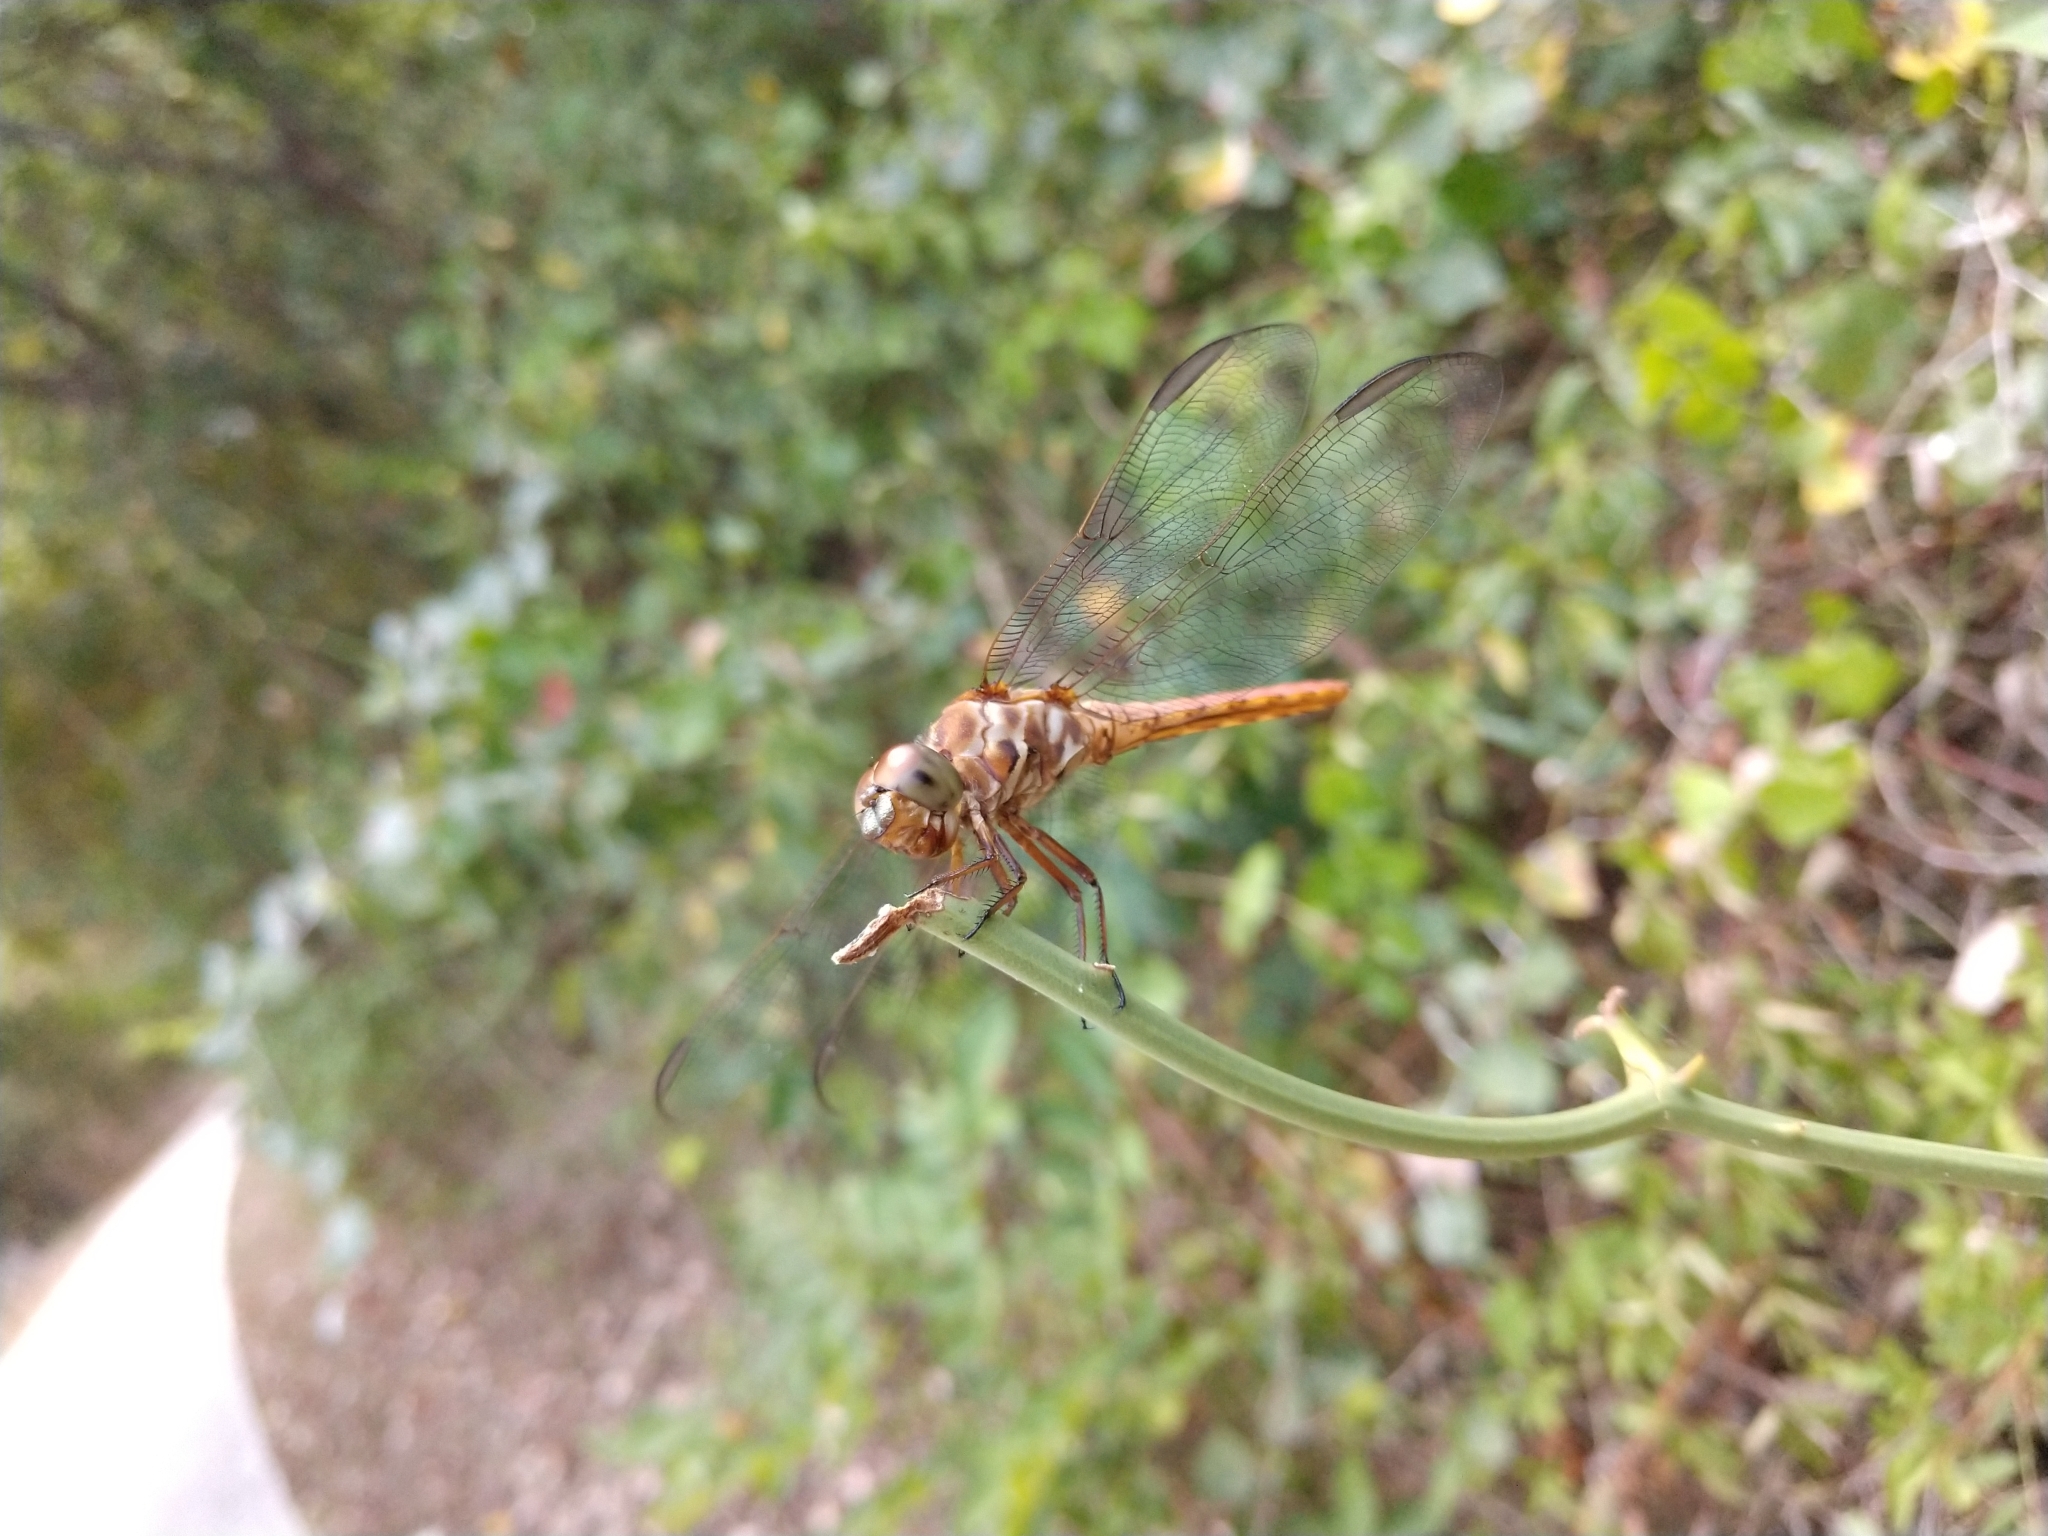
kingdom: Animalia
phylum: Arthropoda
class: Insecta
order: Odonata
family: Libellulidae
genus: Orthemis
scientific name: Orthemis ferruginea
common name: Roseate skimmer
